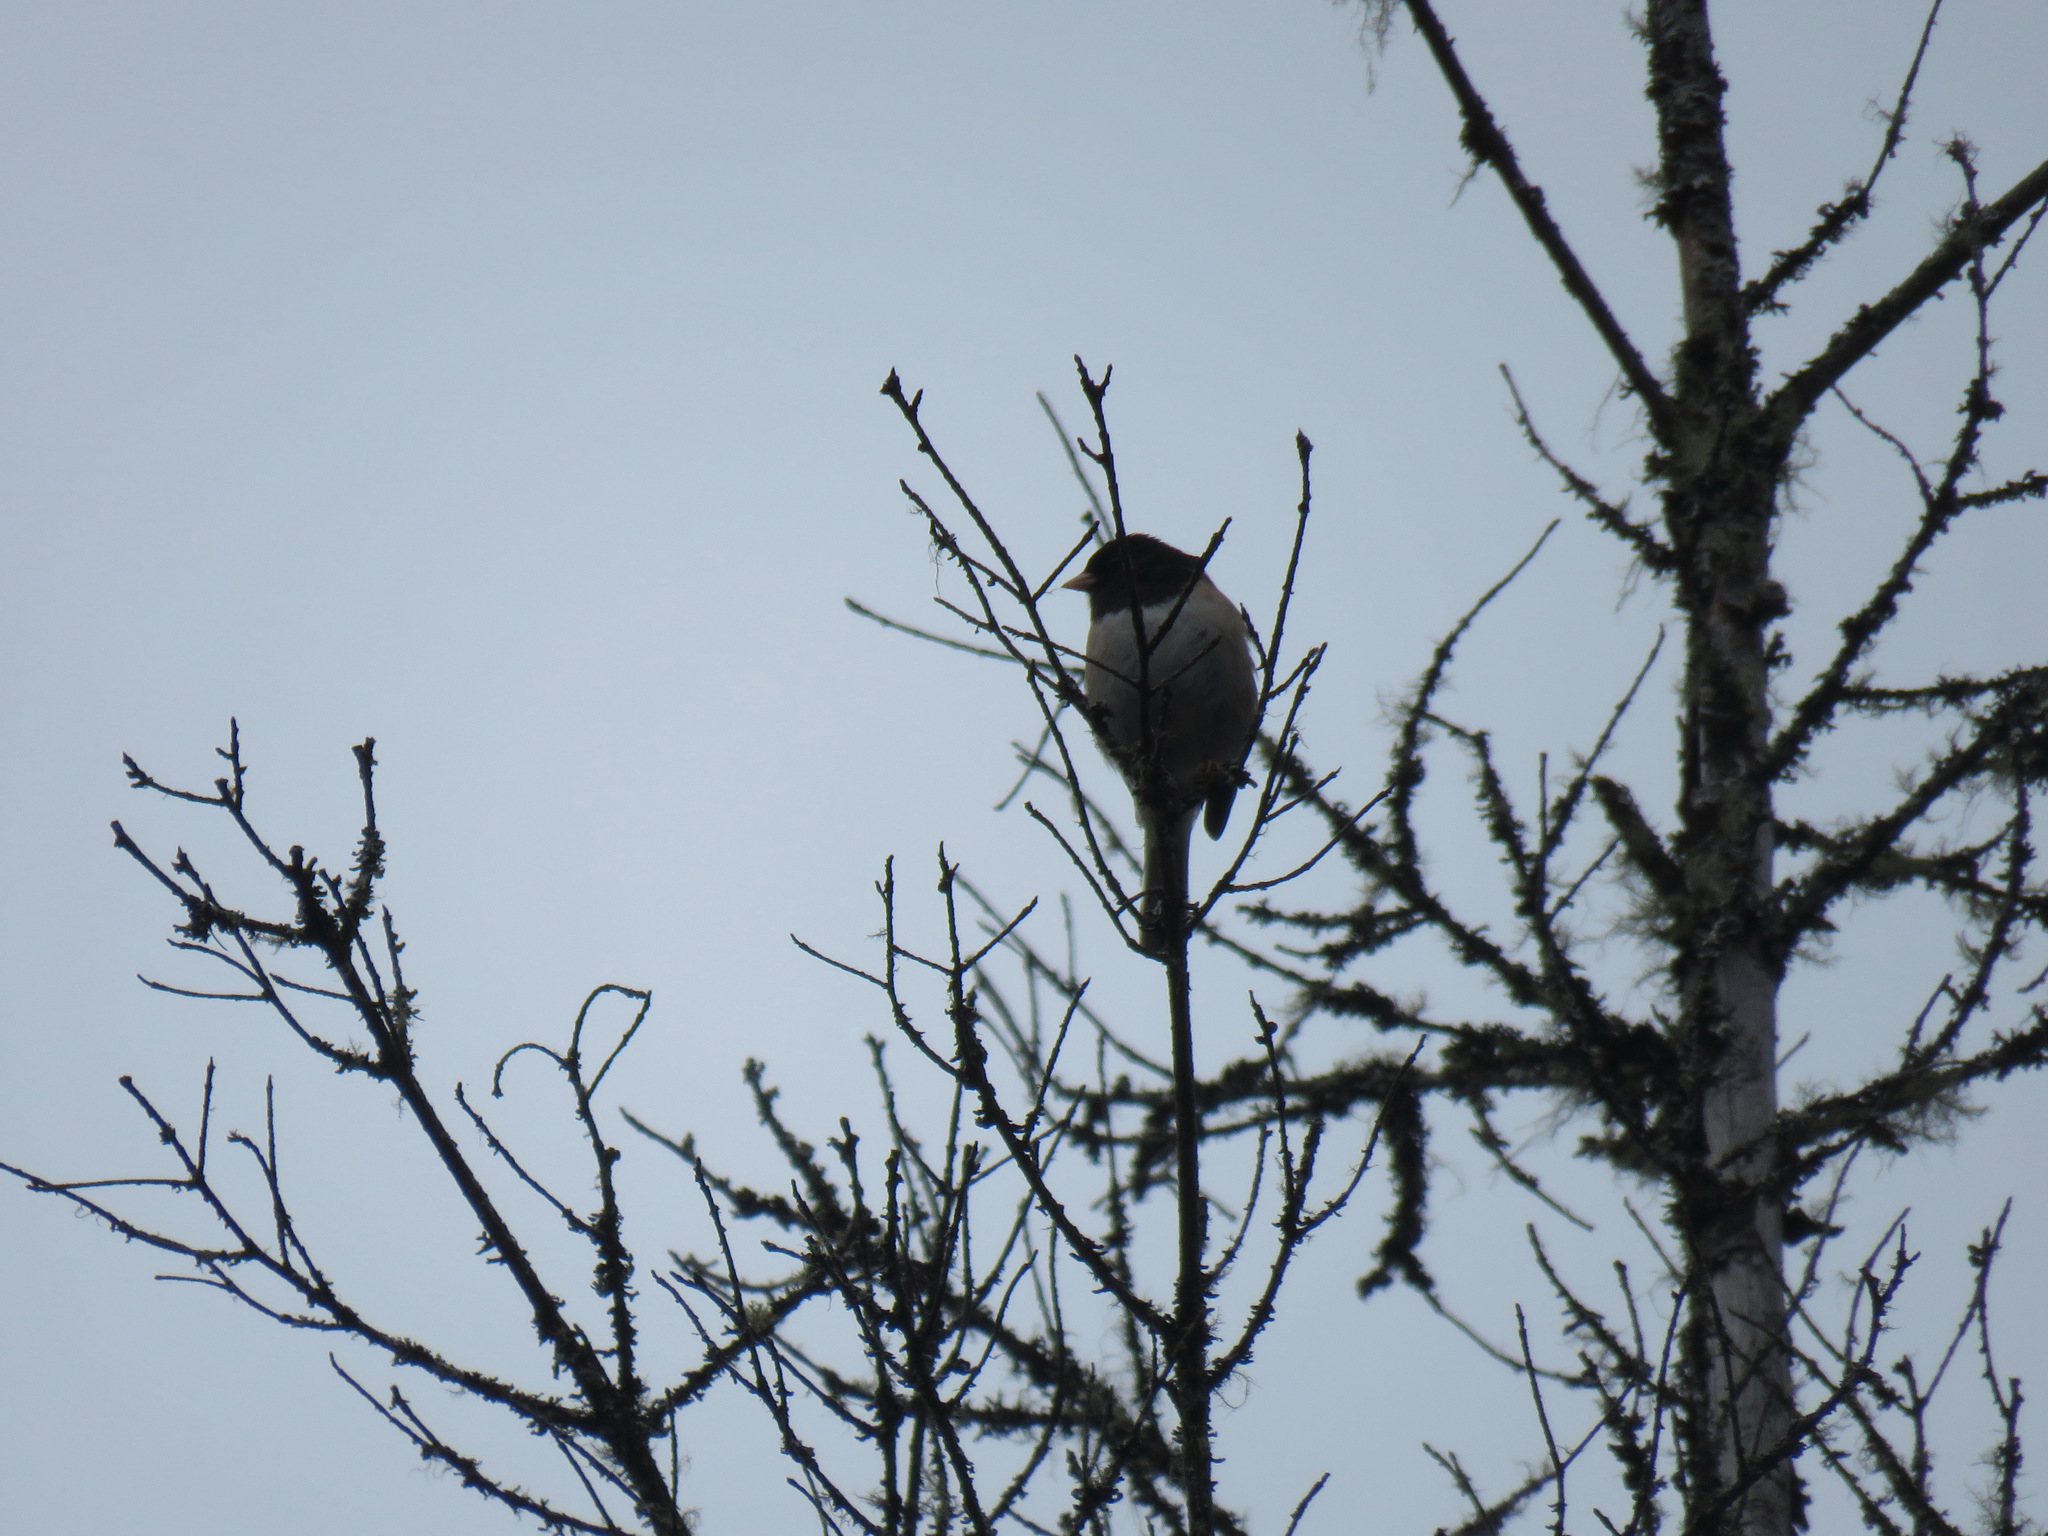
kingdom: Animalia
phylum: Chordata
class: Aves
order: Passeriformes
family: Passerellidae
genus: Junco
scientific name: Junco hyemalis
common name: Dark-eyed junco
